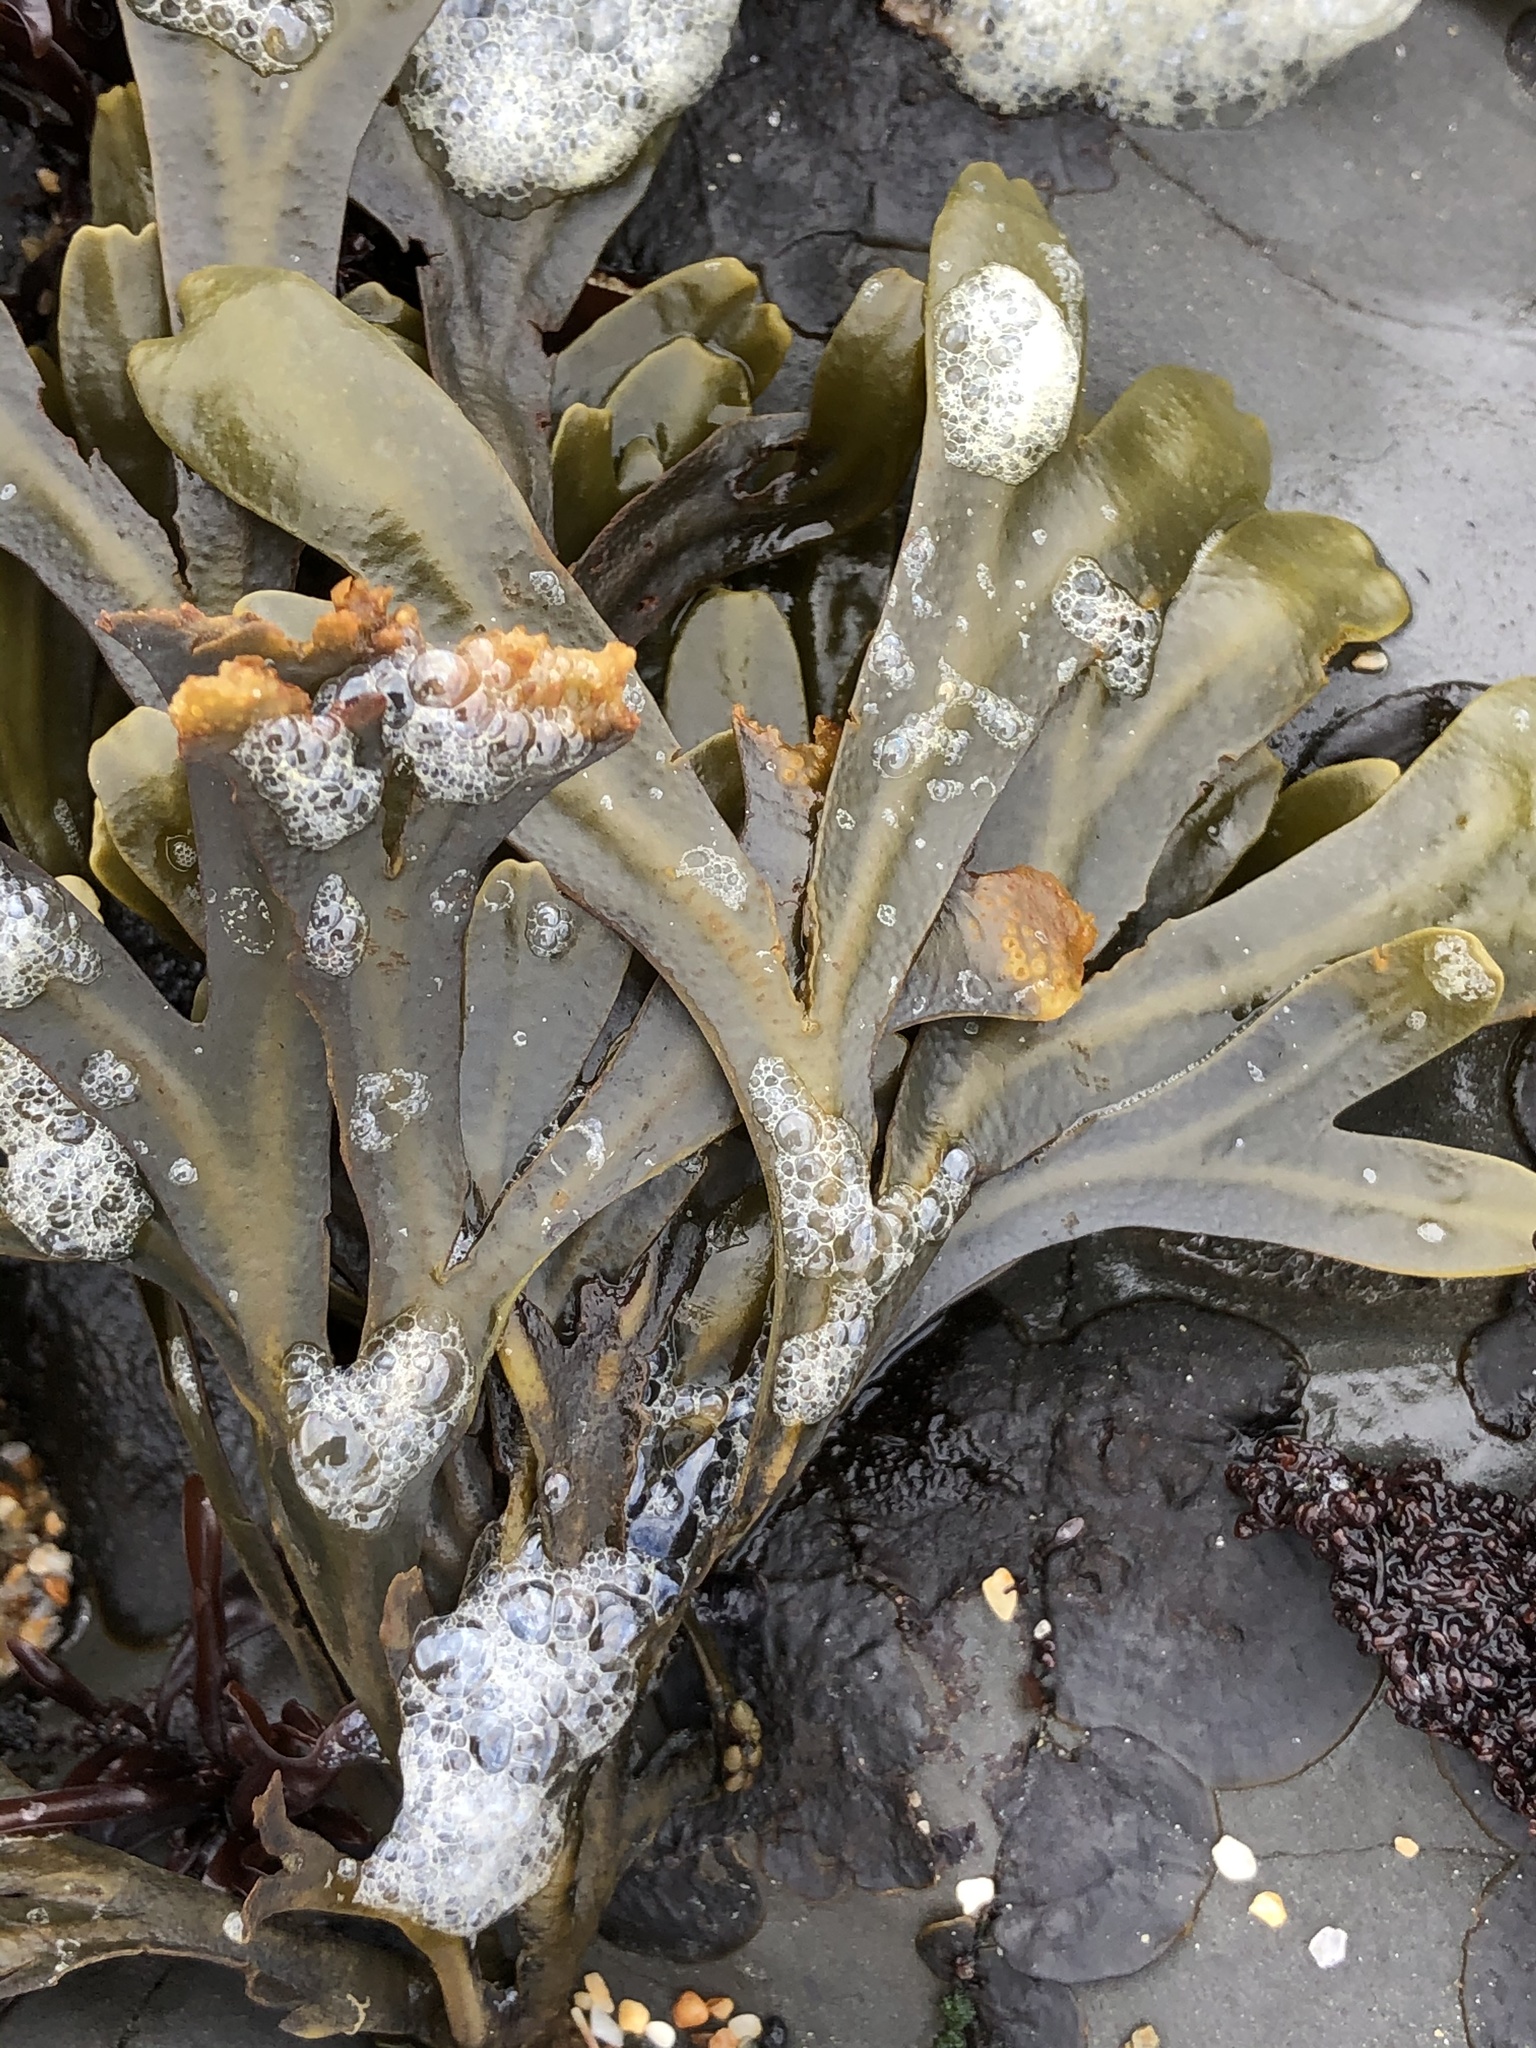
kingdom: Chromista
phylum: Ochrophyta
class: Phaeophyceae
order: Fucales
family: Fucaceae
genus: Fucus
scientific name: Fucus distichus
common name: Rockweed
